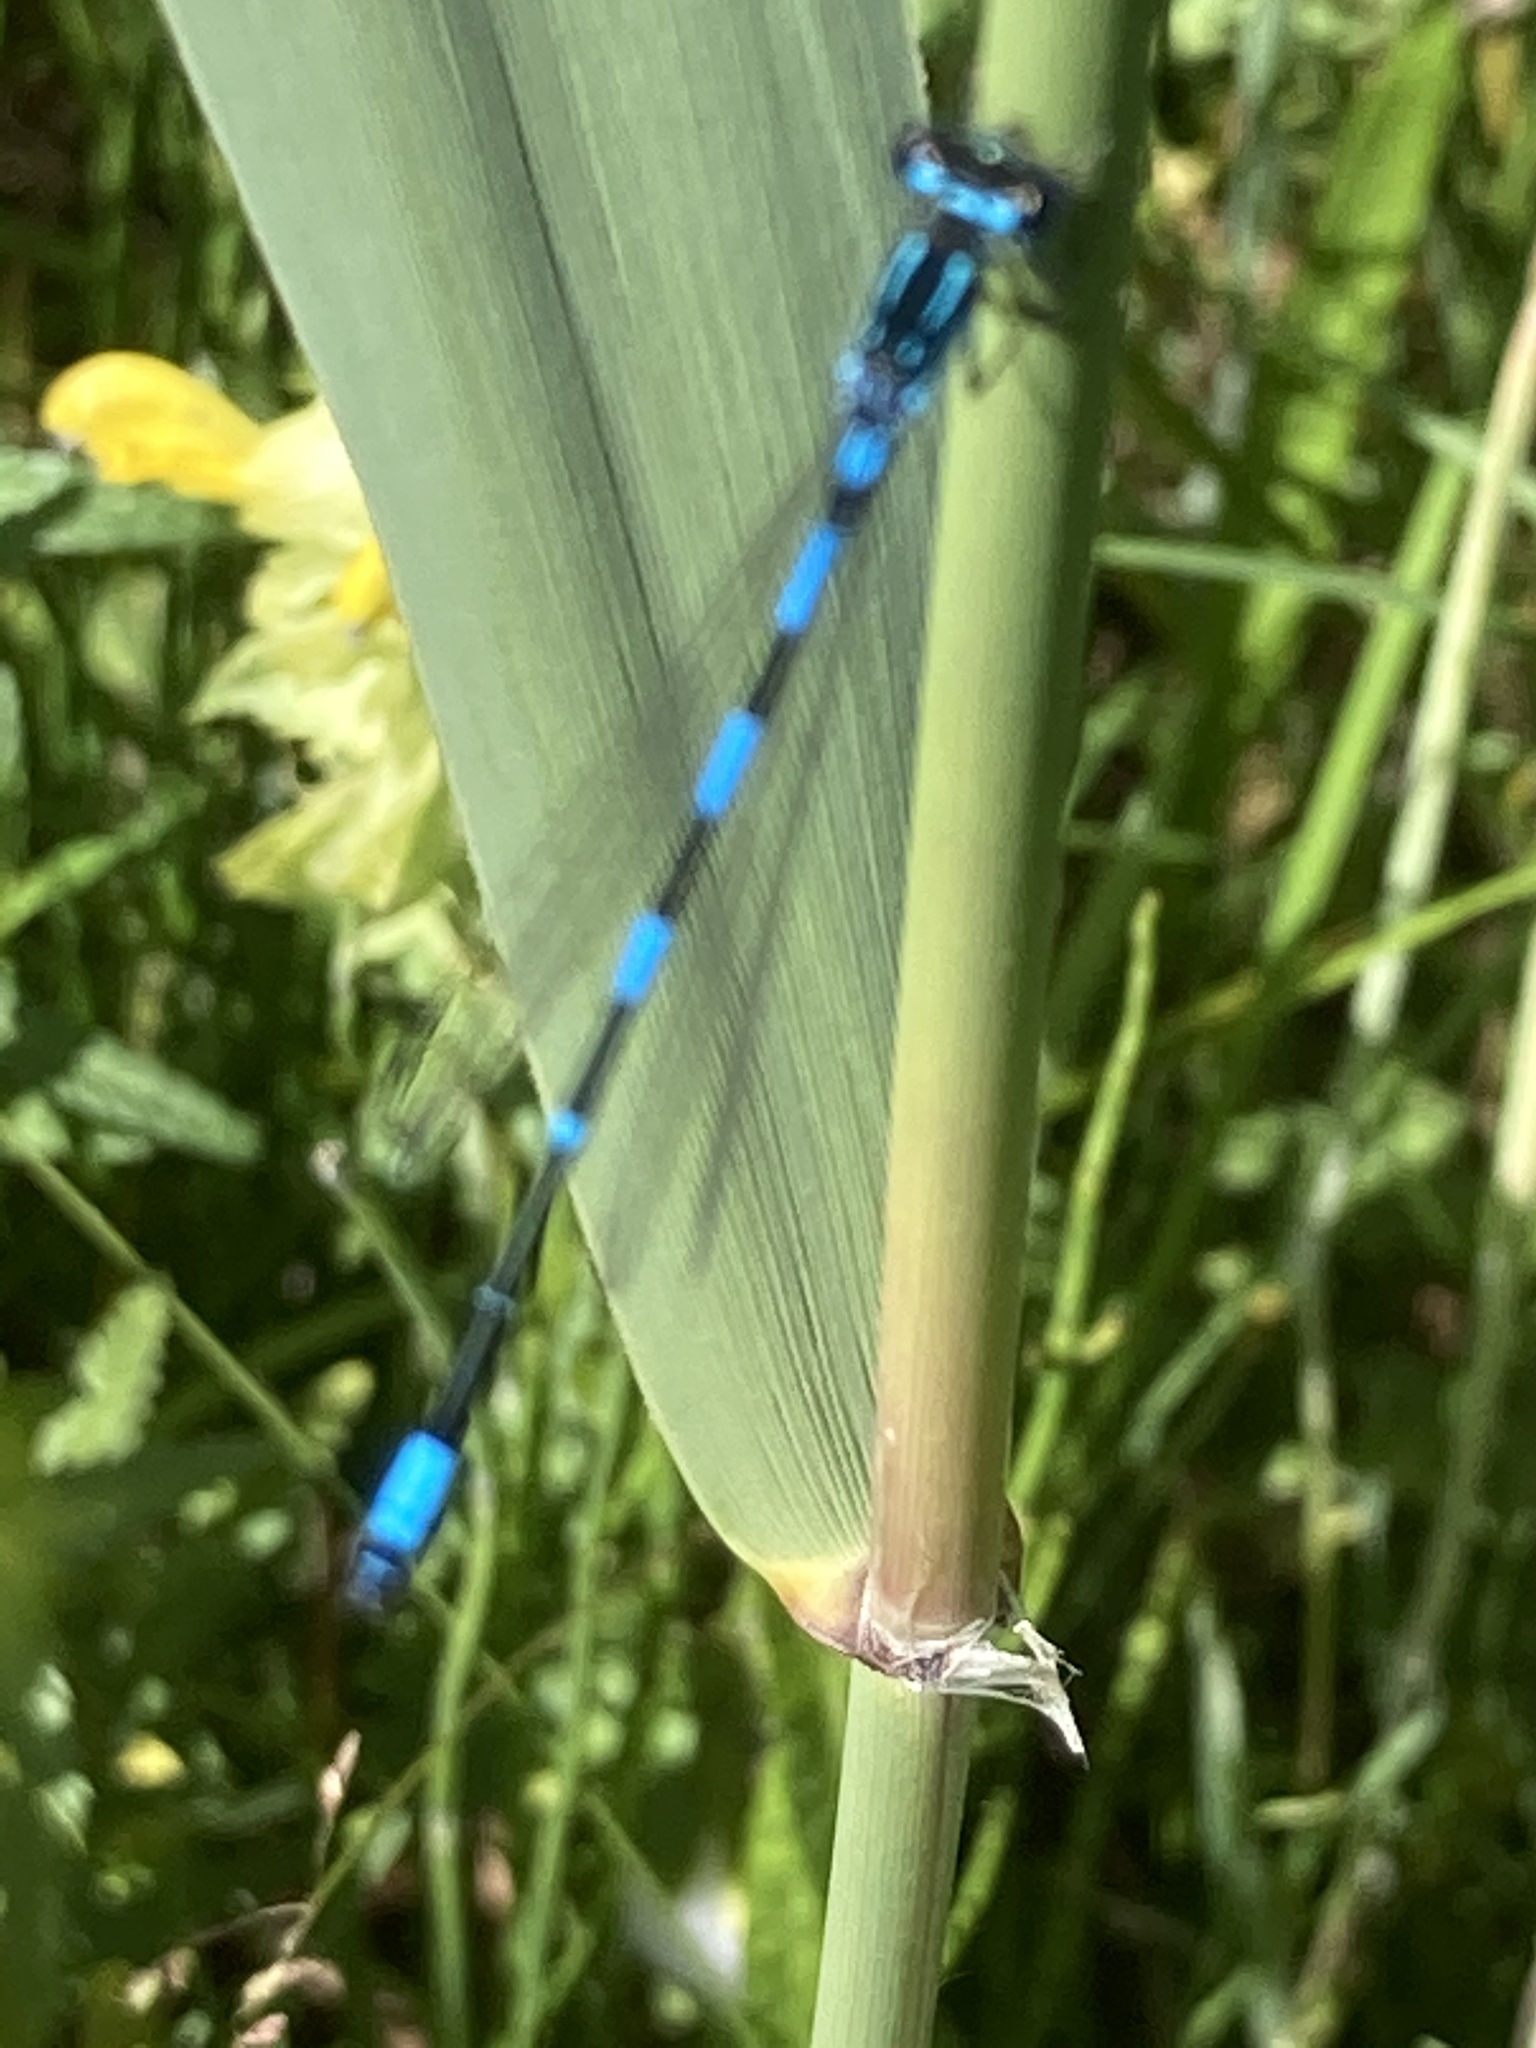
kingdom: Animalia
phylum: Arthropoda
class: Insecta
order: Odonata
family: Coenagrionidae
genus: Coenagrion
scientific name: Coenagrion pulchellum
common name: Variable bluet
